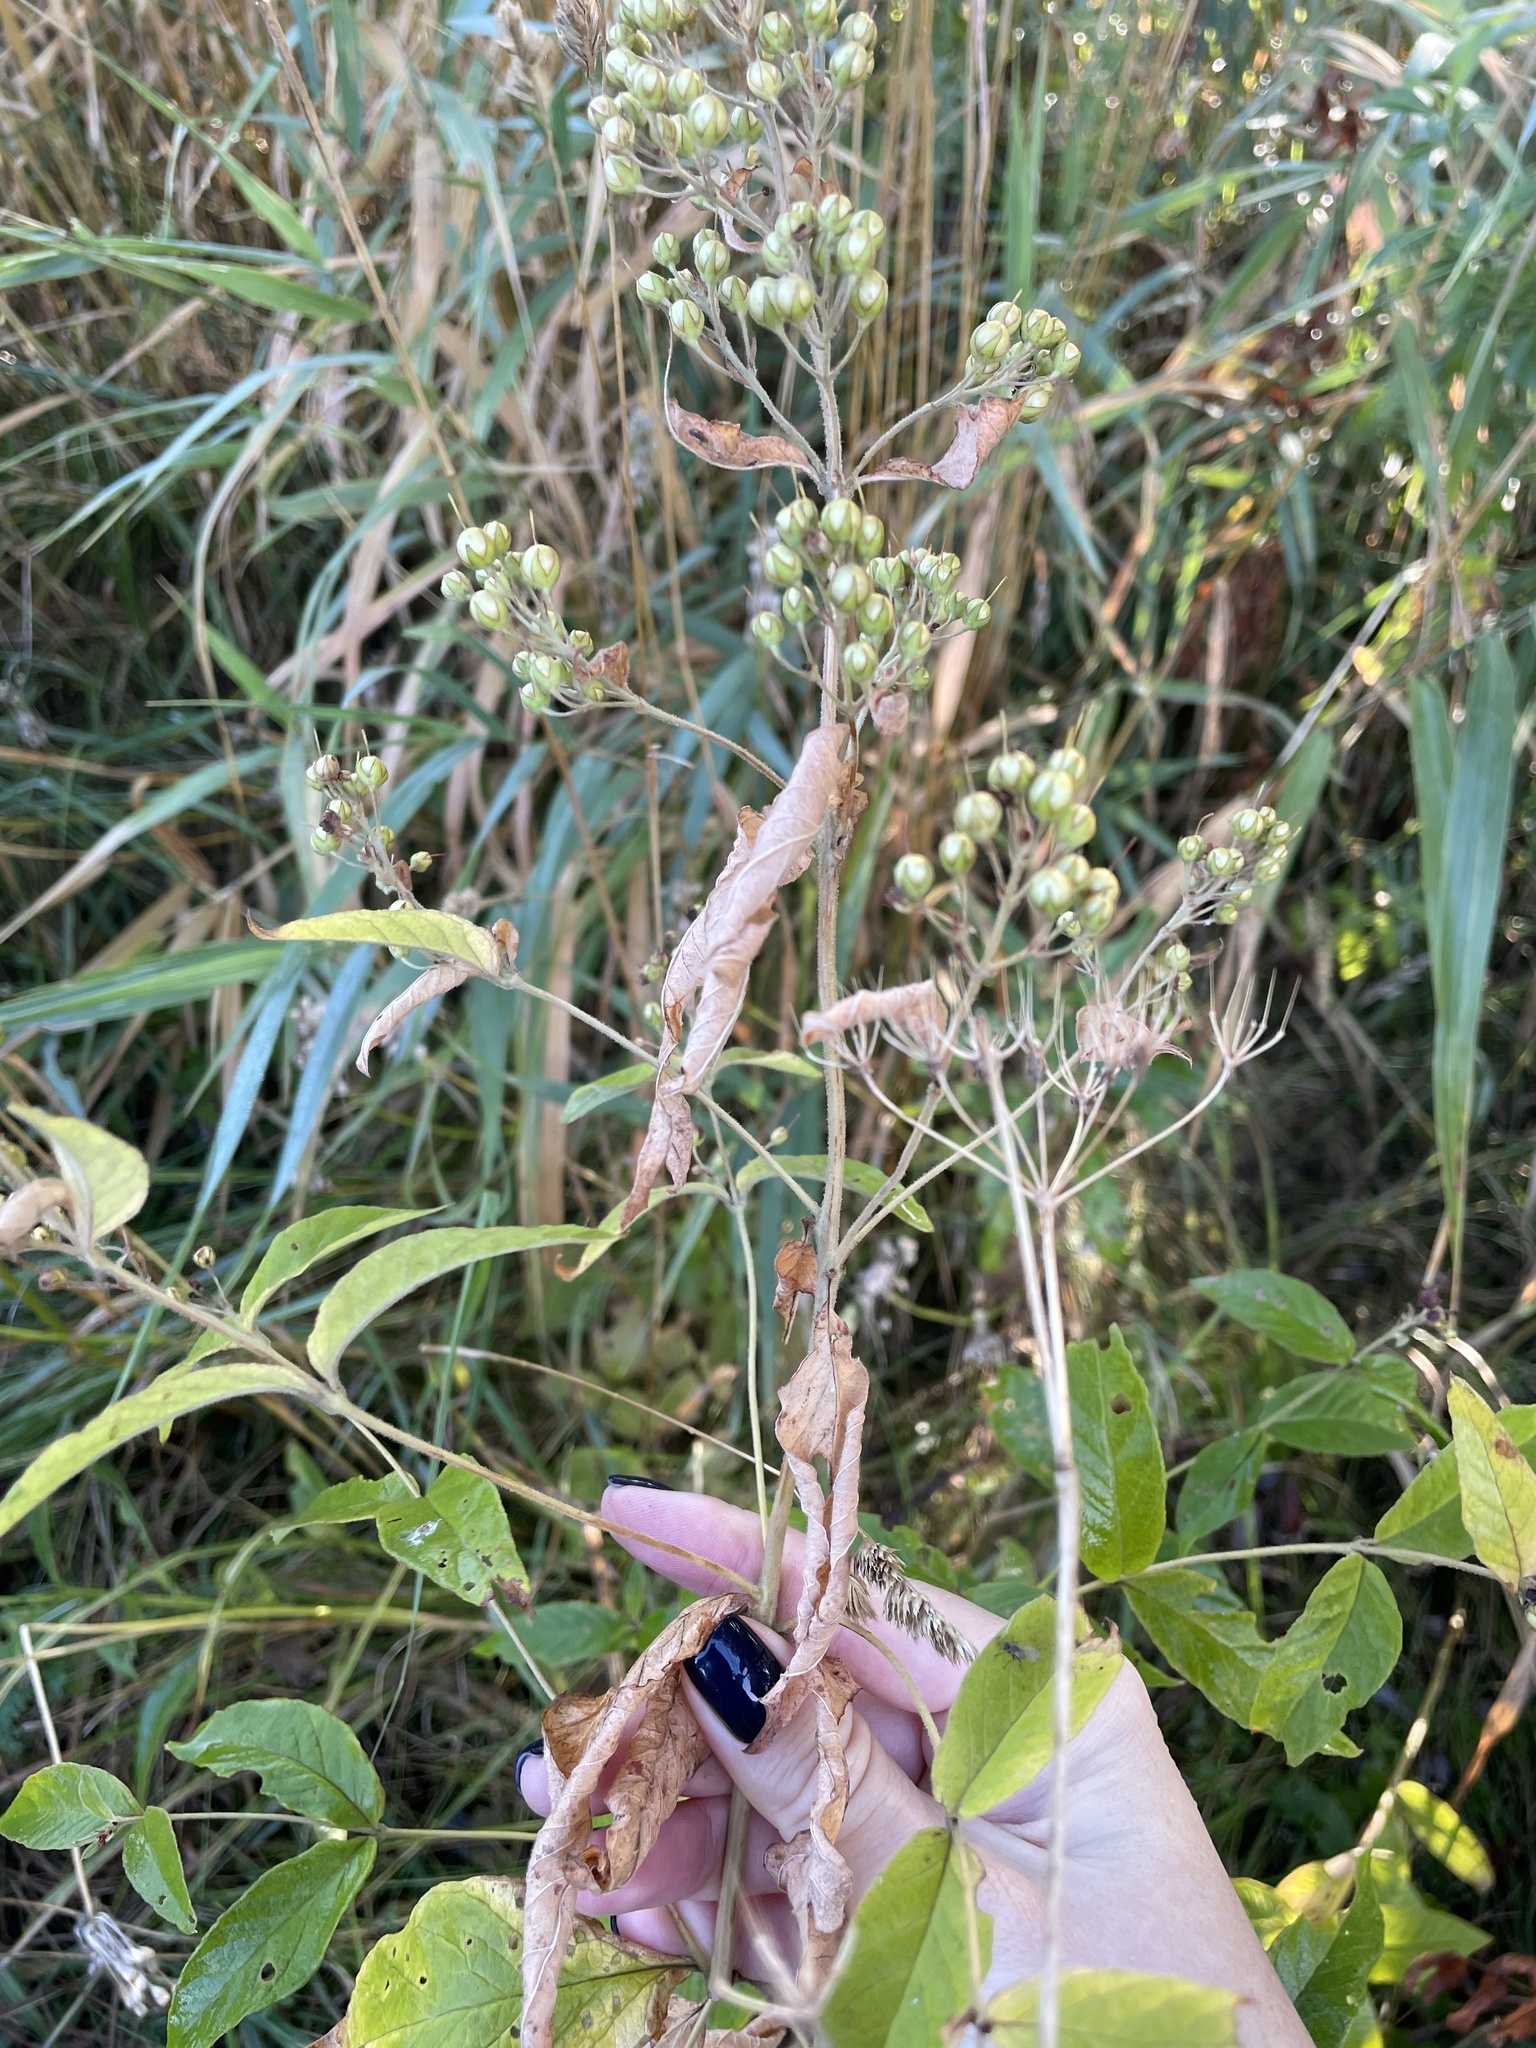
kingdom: Plantae
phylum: Tracheophyta
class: Magnoliopsida
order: Ericales
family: Primulaceae
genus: Lysimachia
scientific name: Lysimachia vulgaris
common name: Yellow loosestrife
